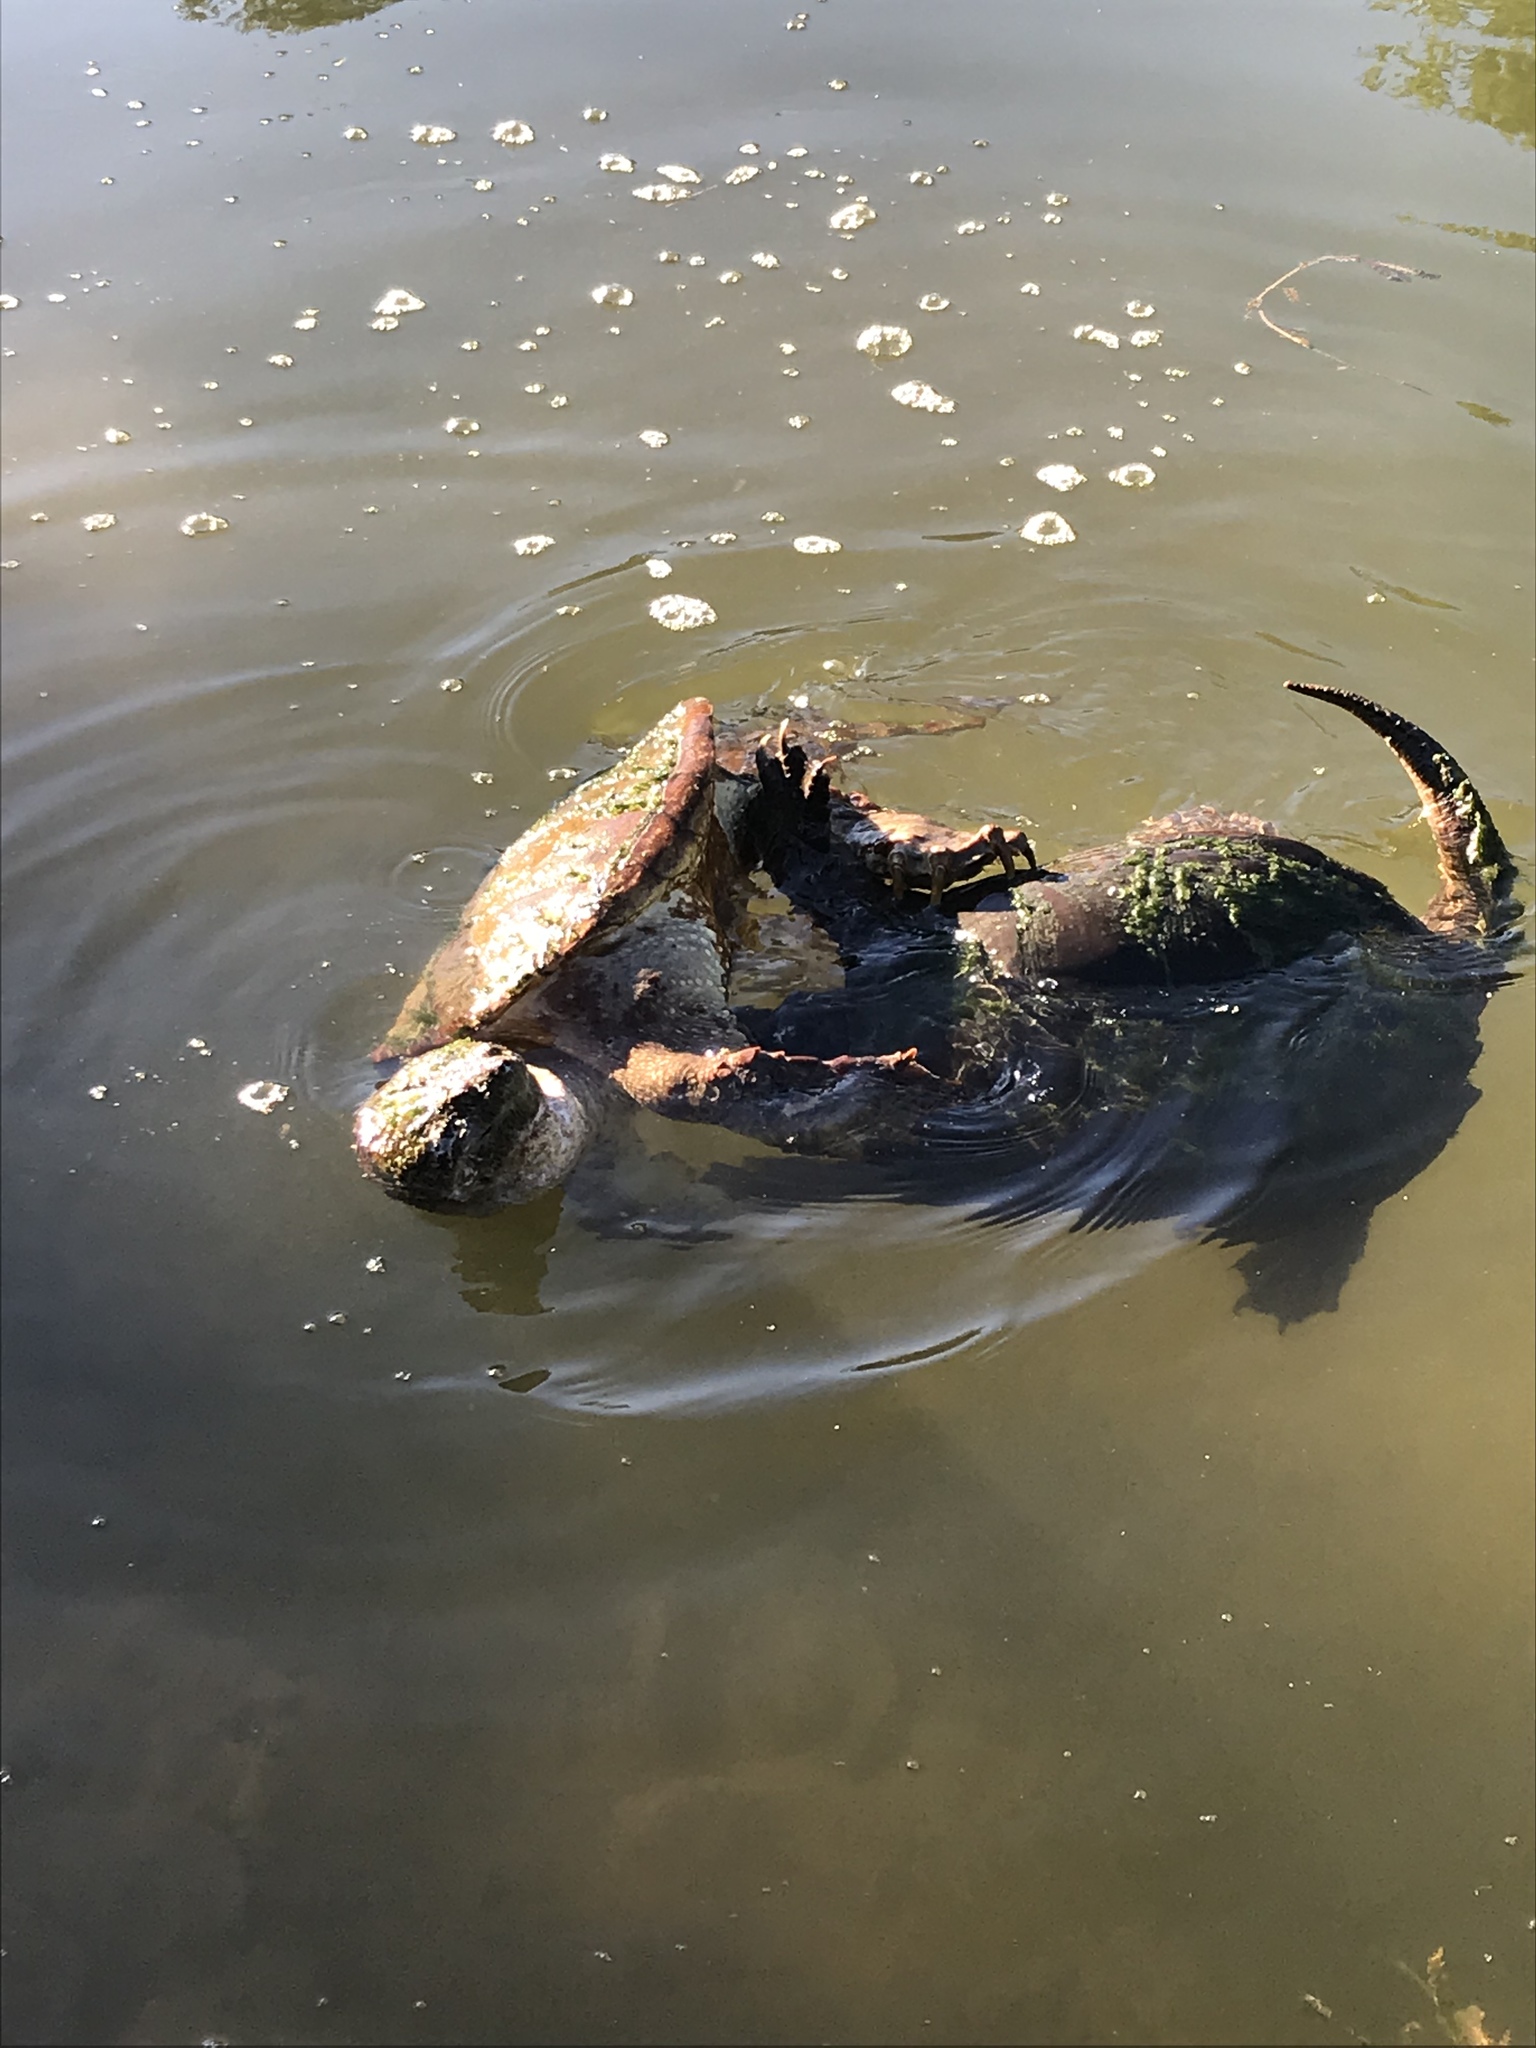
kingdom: Animalia
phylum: Chordata
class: Testudines
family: Chelydridae
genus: Chelydra
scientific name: Chelydra serpentina
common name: Common snapping turtle
